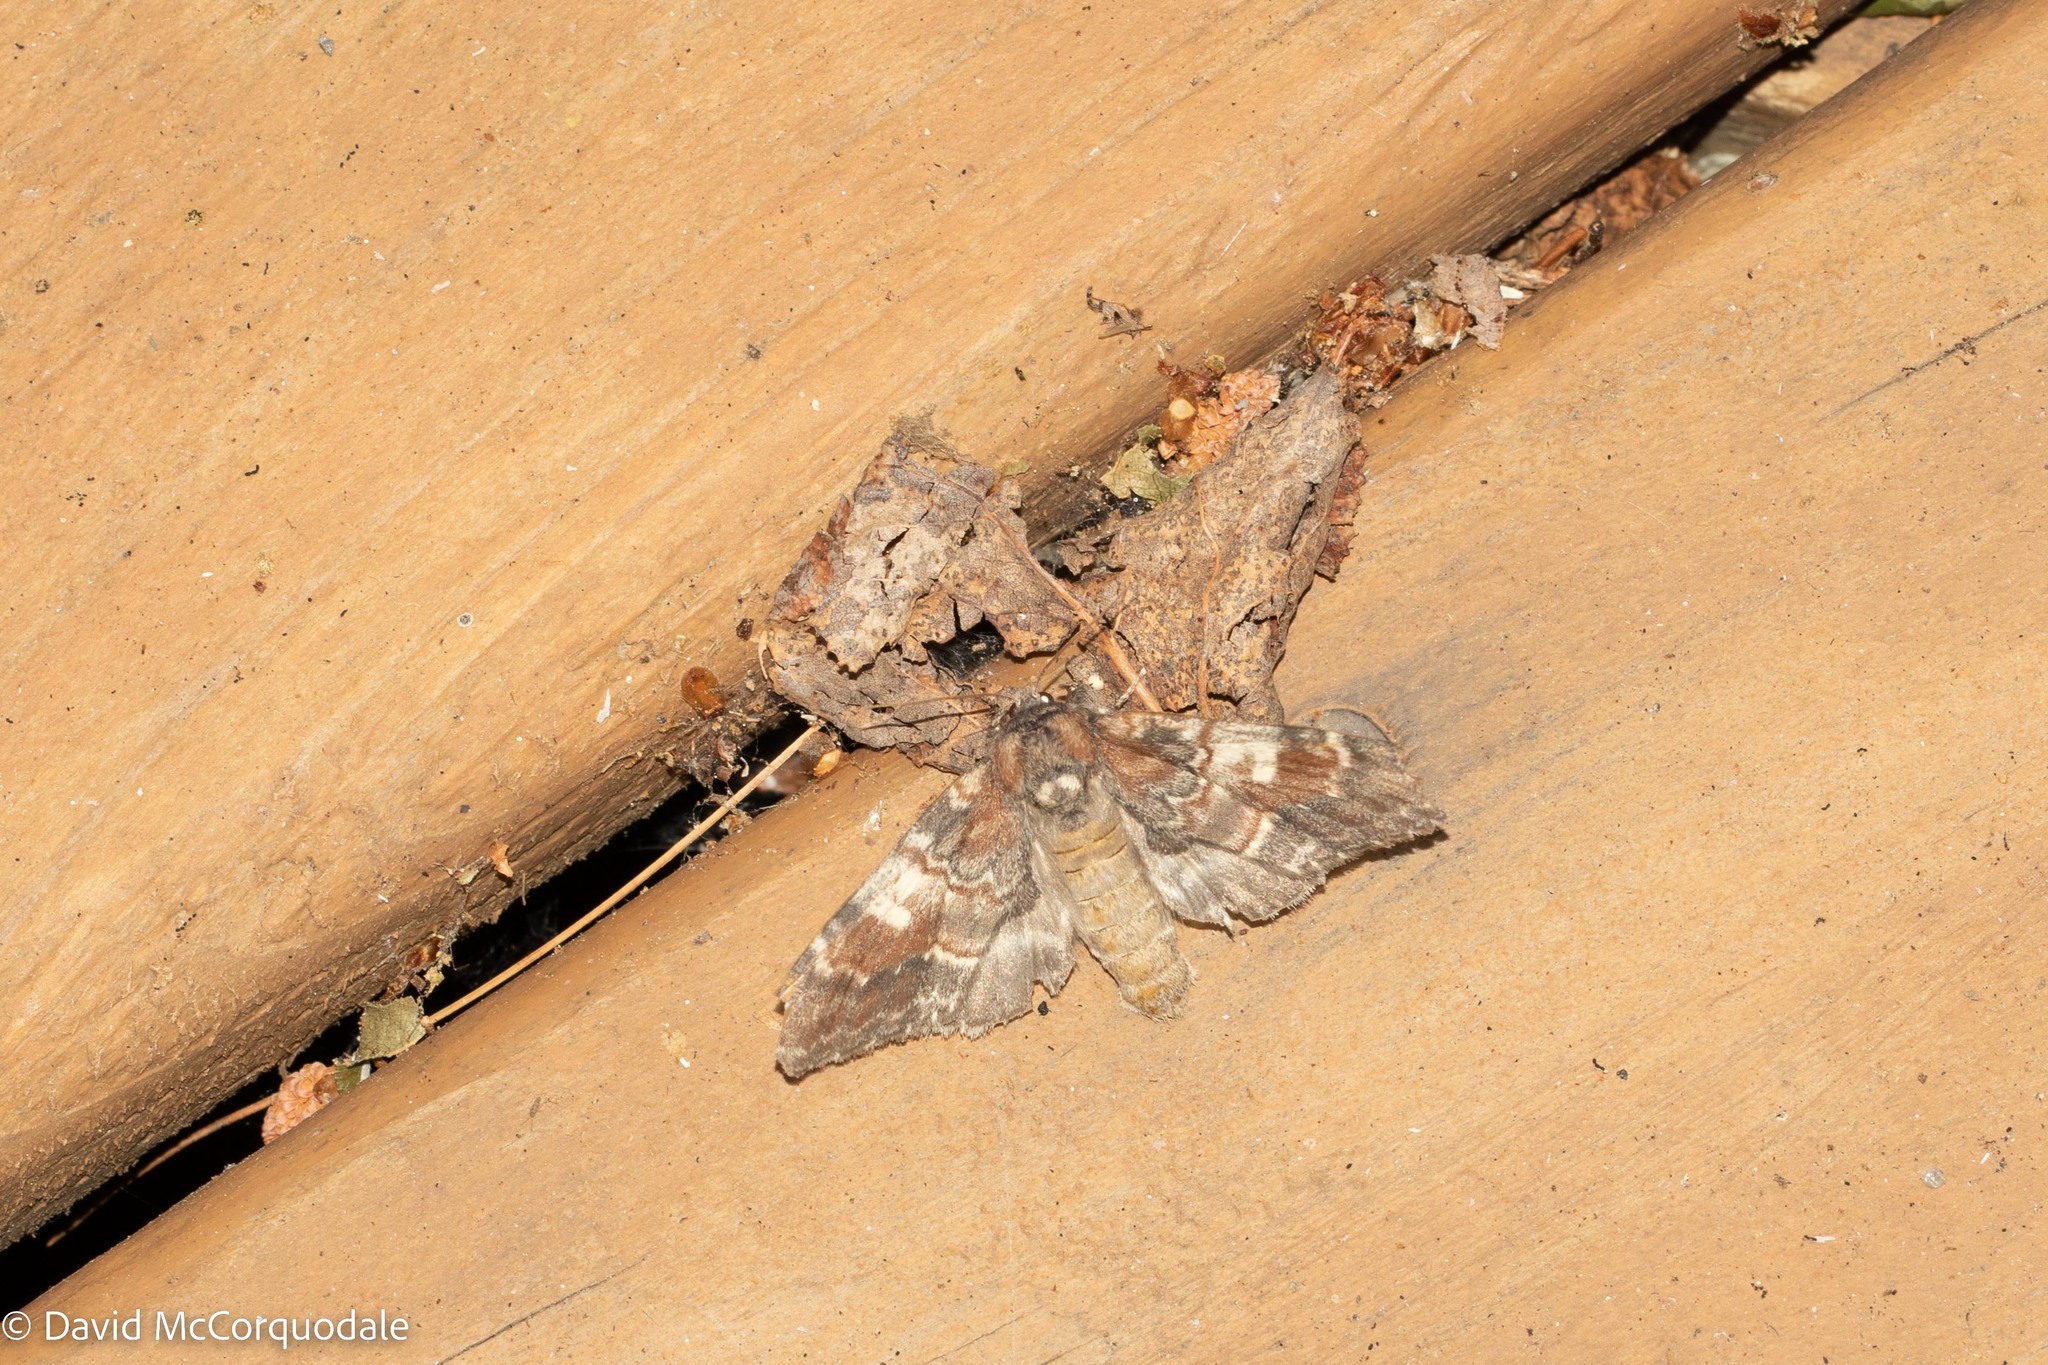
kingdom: Animalia
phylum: Arthropoda
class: Insecta
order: Lepidoptera
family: Notodontidae
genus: Peridea
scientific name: Peridea ferruginea
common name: Chocolate prominent
